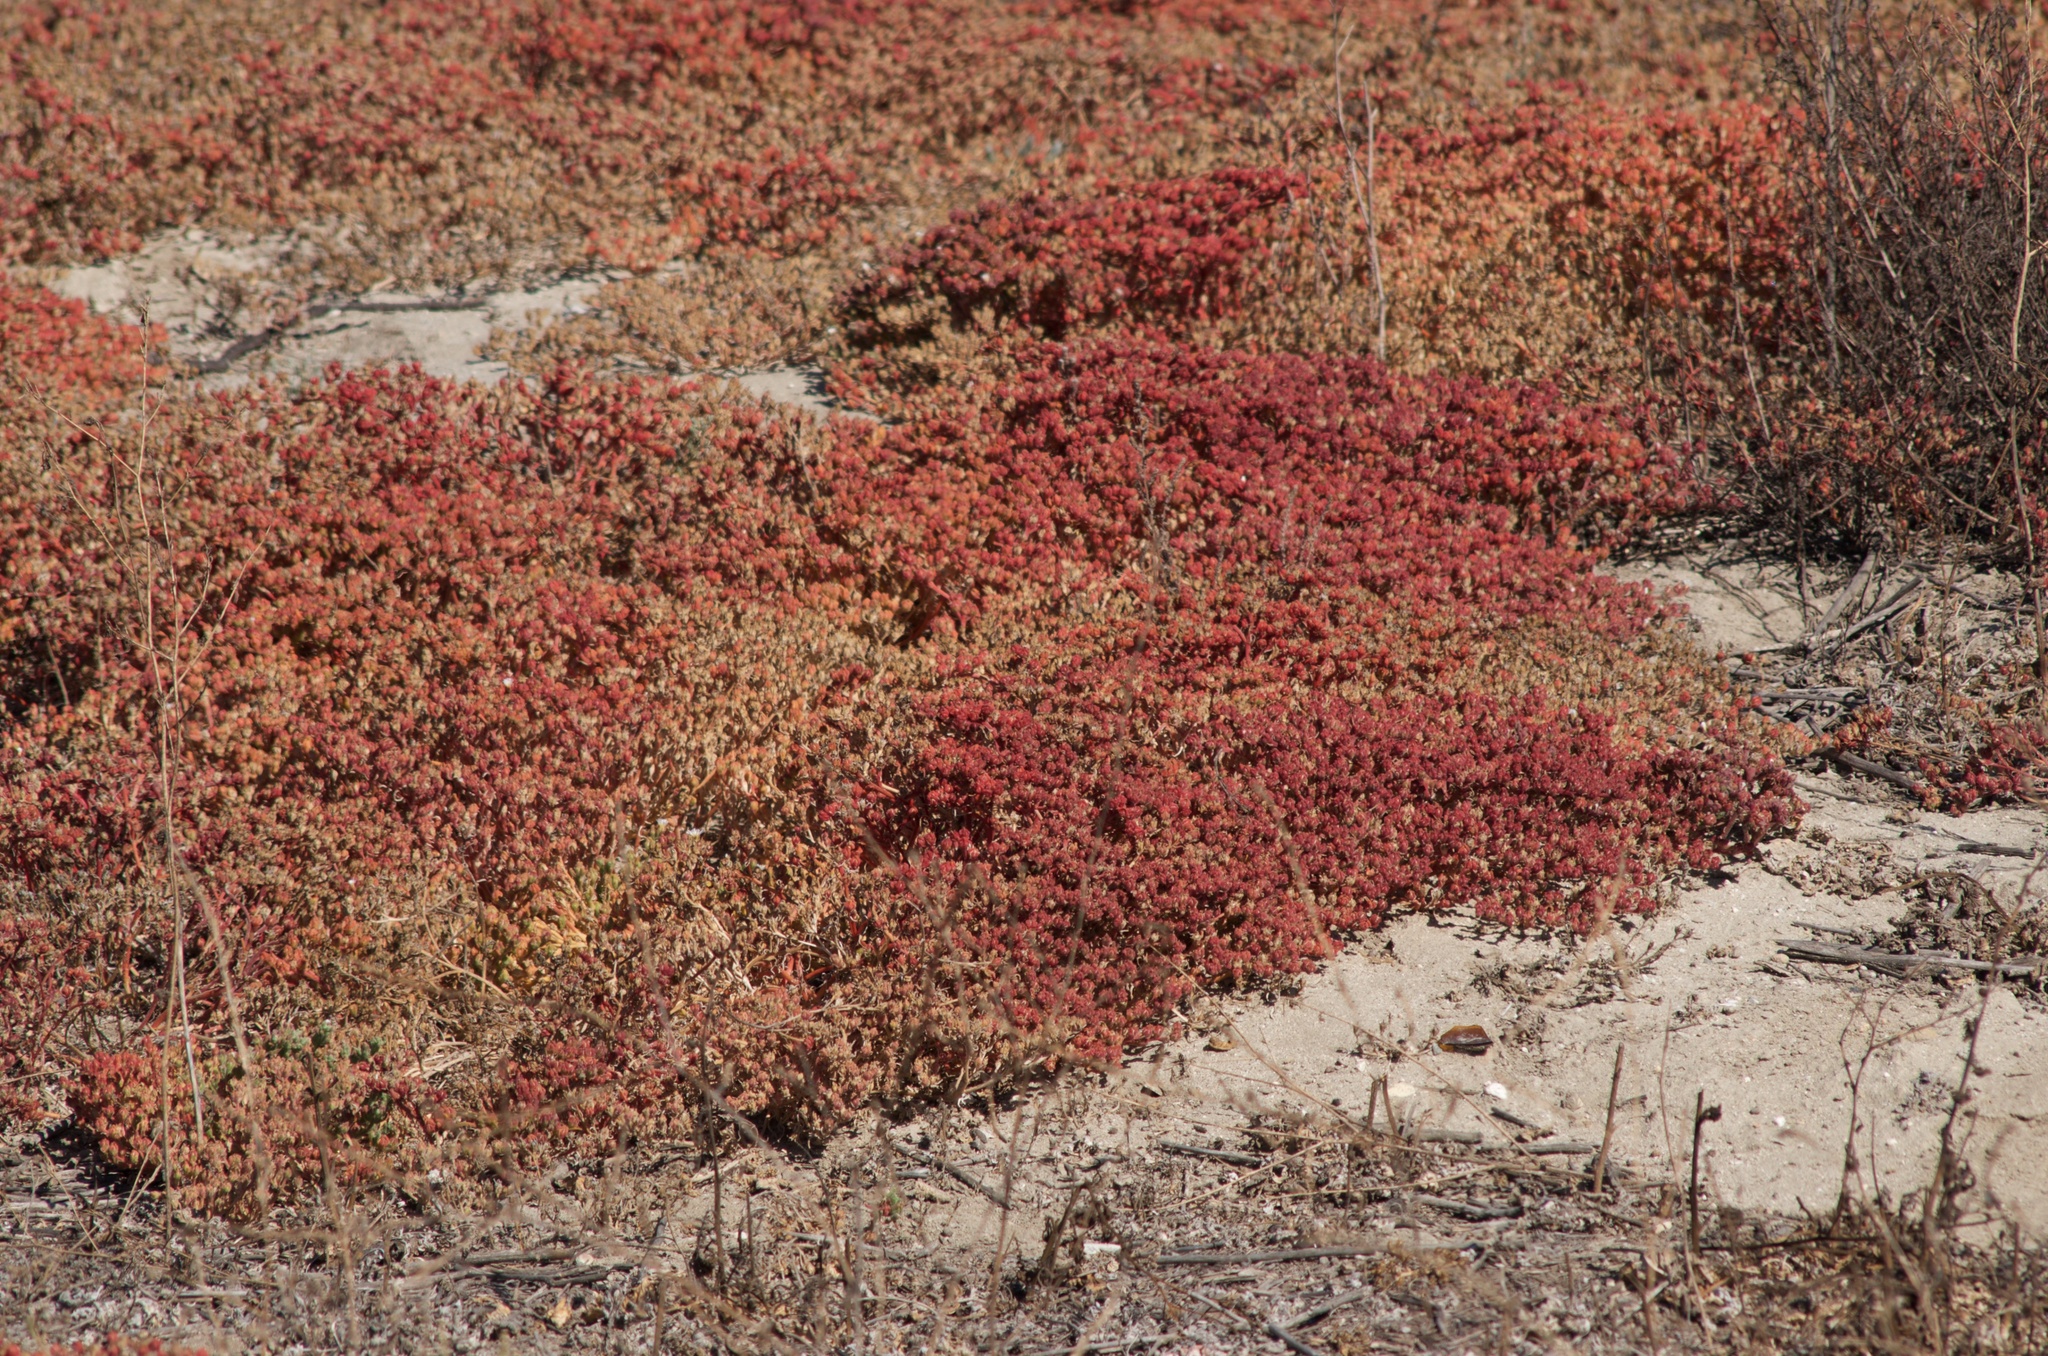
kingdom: Plantae
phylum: Tracheophyta
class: Magnoliopsida
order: Caryophyllales
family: Aizoaceae
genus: Mesembryanthemum
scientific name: Mesembryanthemum crystallinum
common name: Common iceplant
